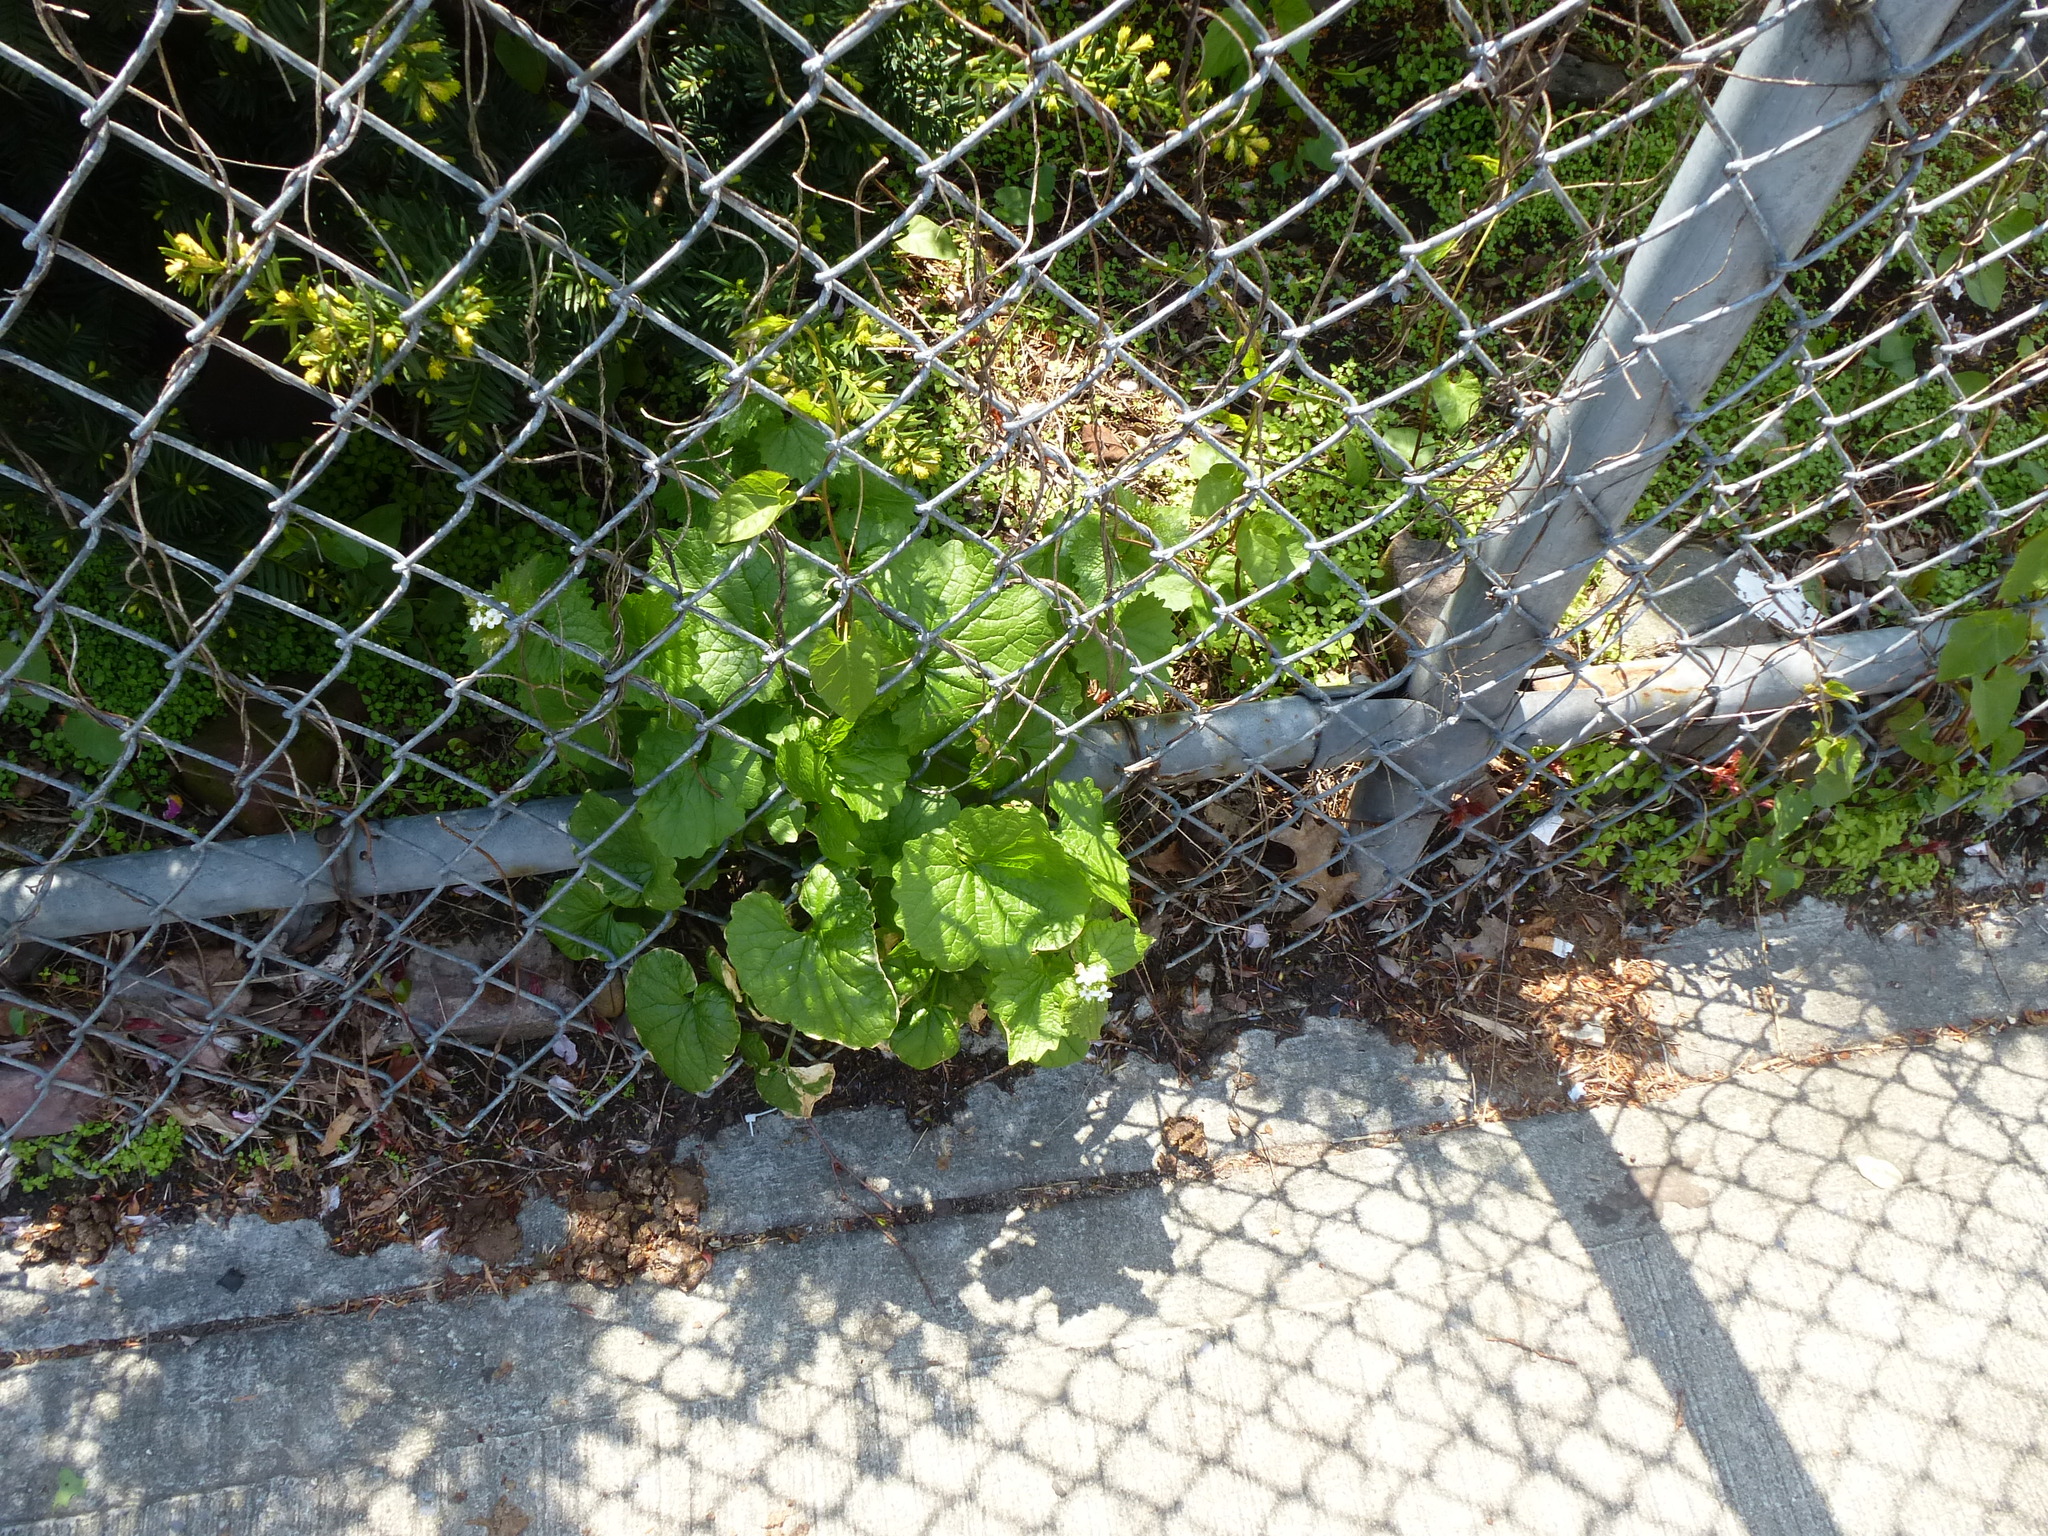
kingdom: Plantae
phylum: Tracheophyta
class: Magnoliopsida
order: Brassicales
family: Brassicaceae
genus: Alliaria
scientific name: Alliaria petiolata
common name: Garlic mustard
